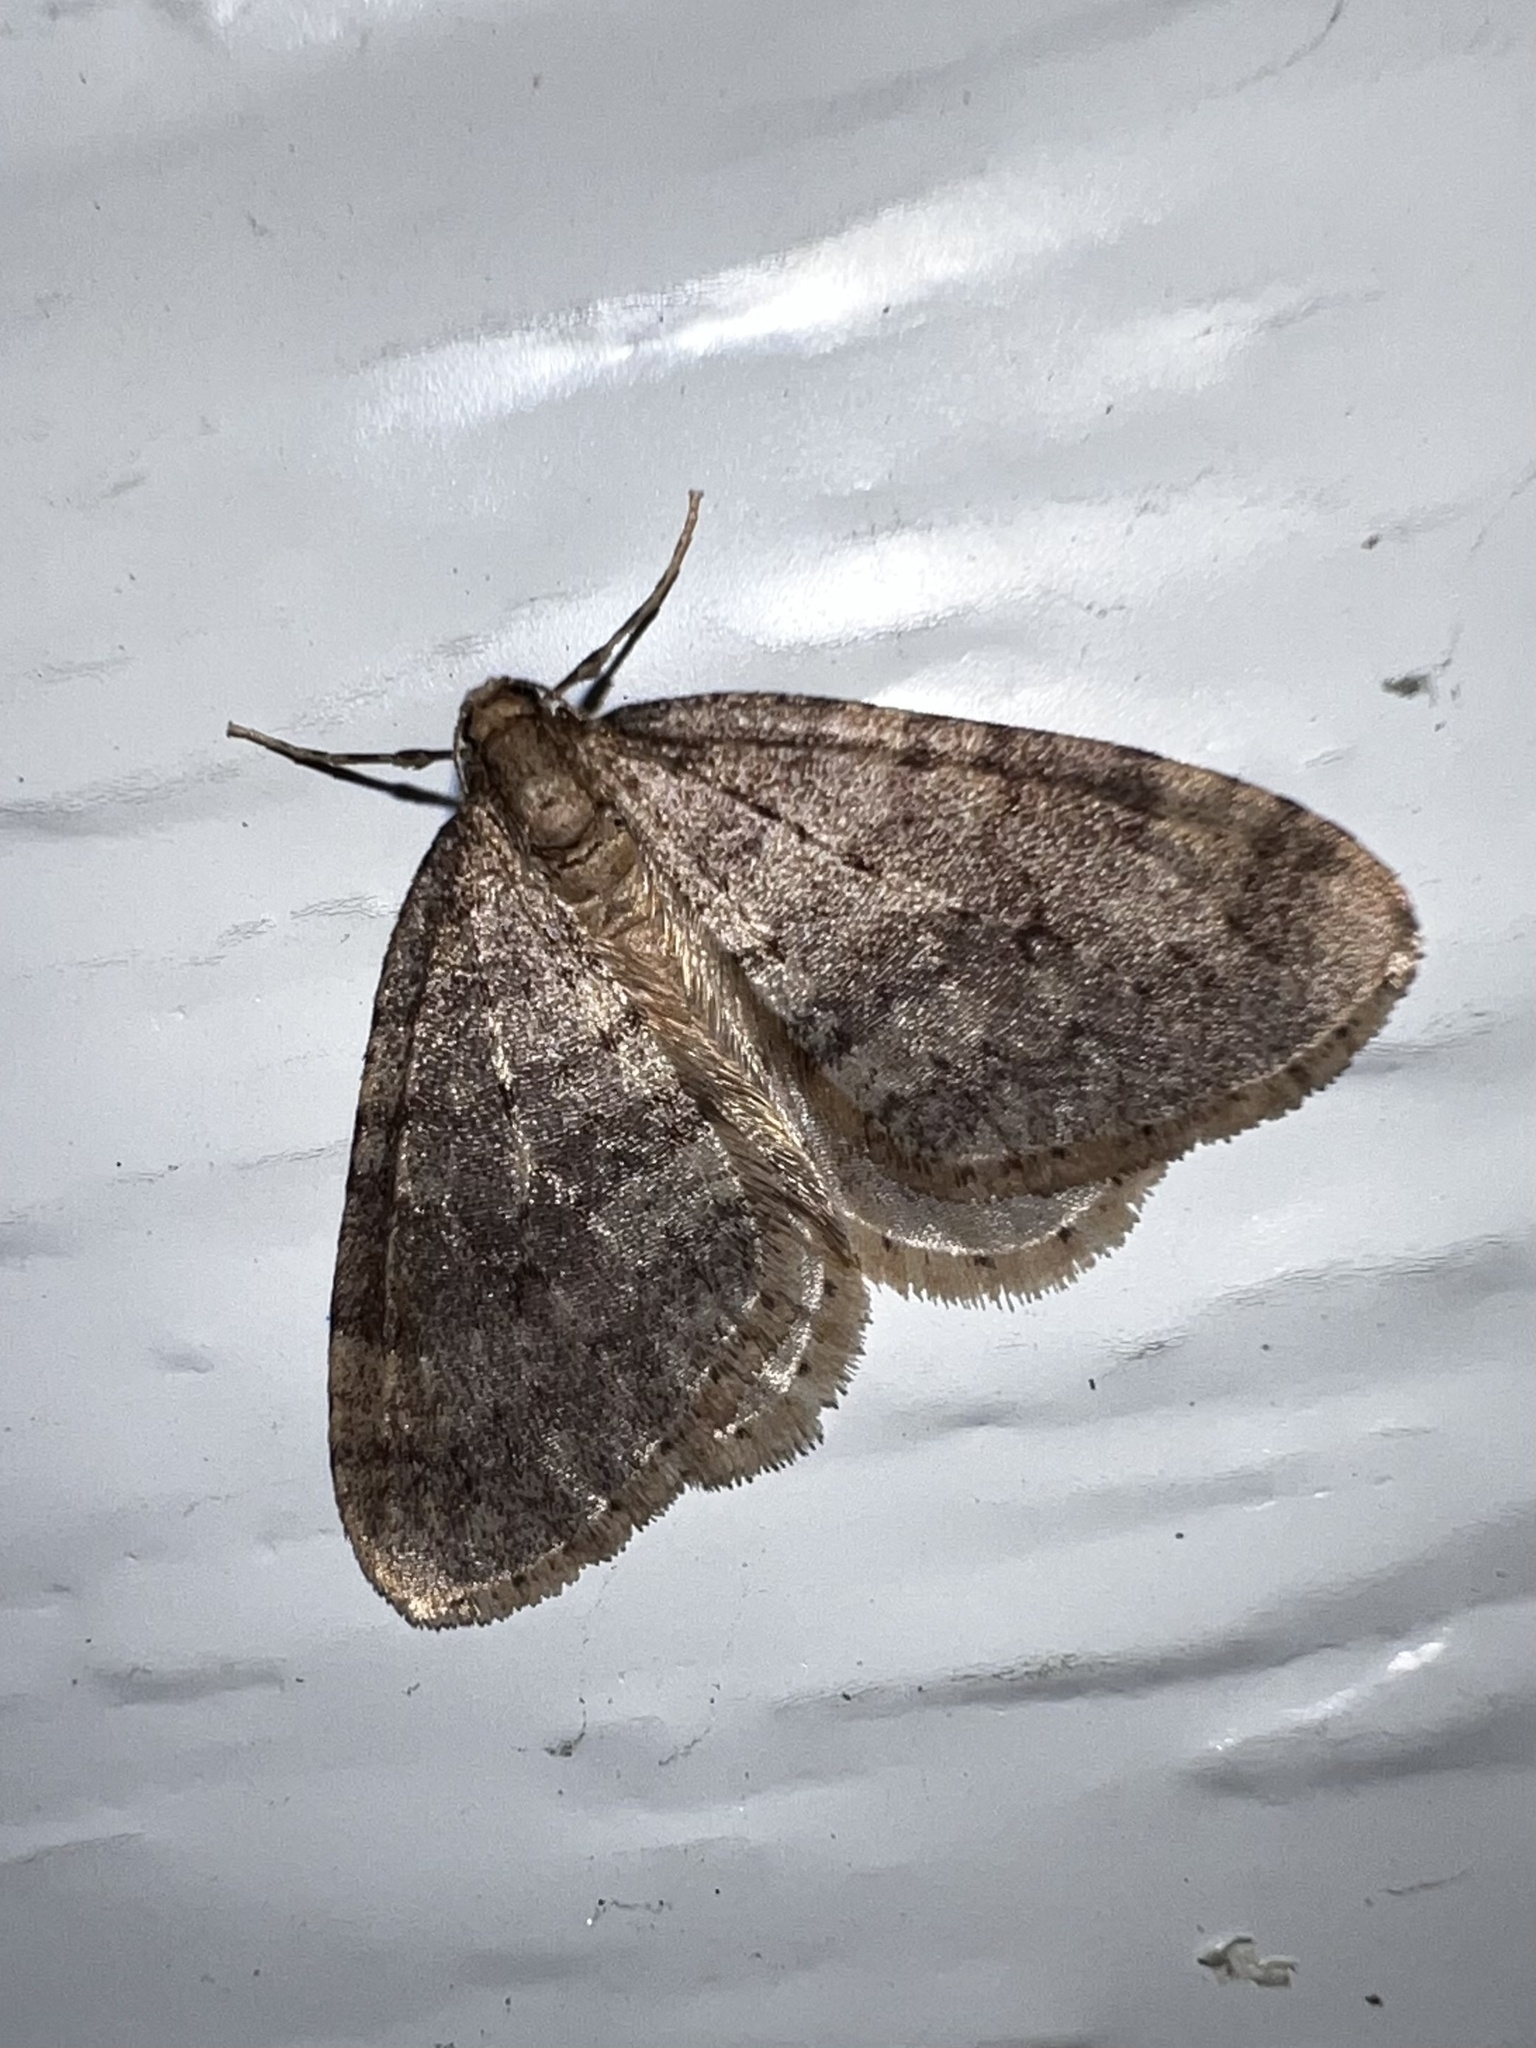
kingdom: Animalia
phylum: Arthropoda
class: Insecta
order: Lepidoptera
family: Geometridae
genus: Operophtera
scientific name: Operophtera brumata
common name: Winter moth
